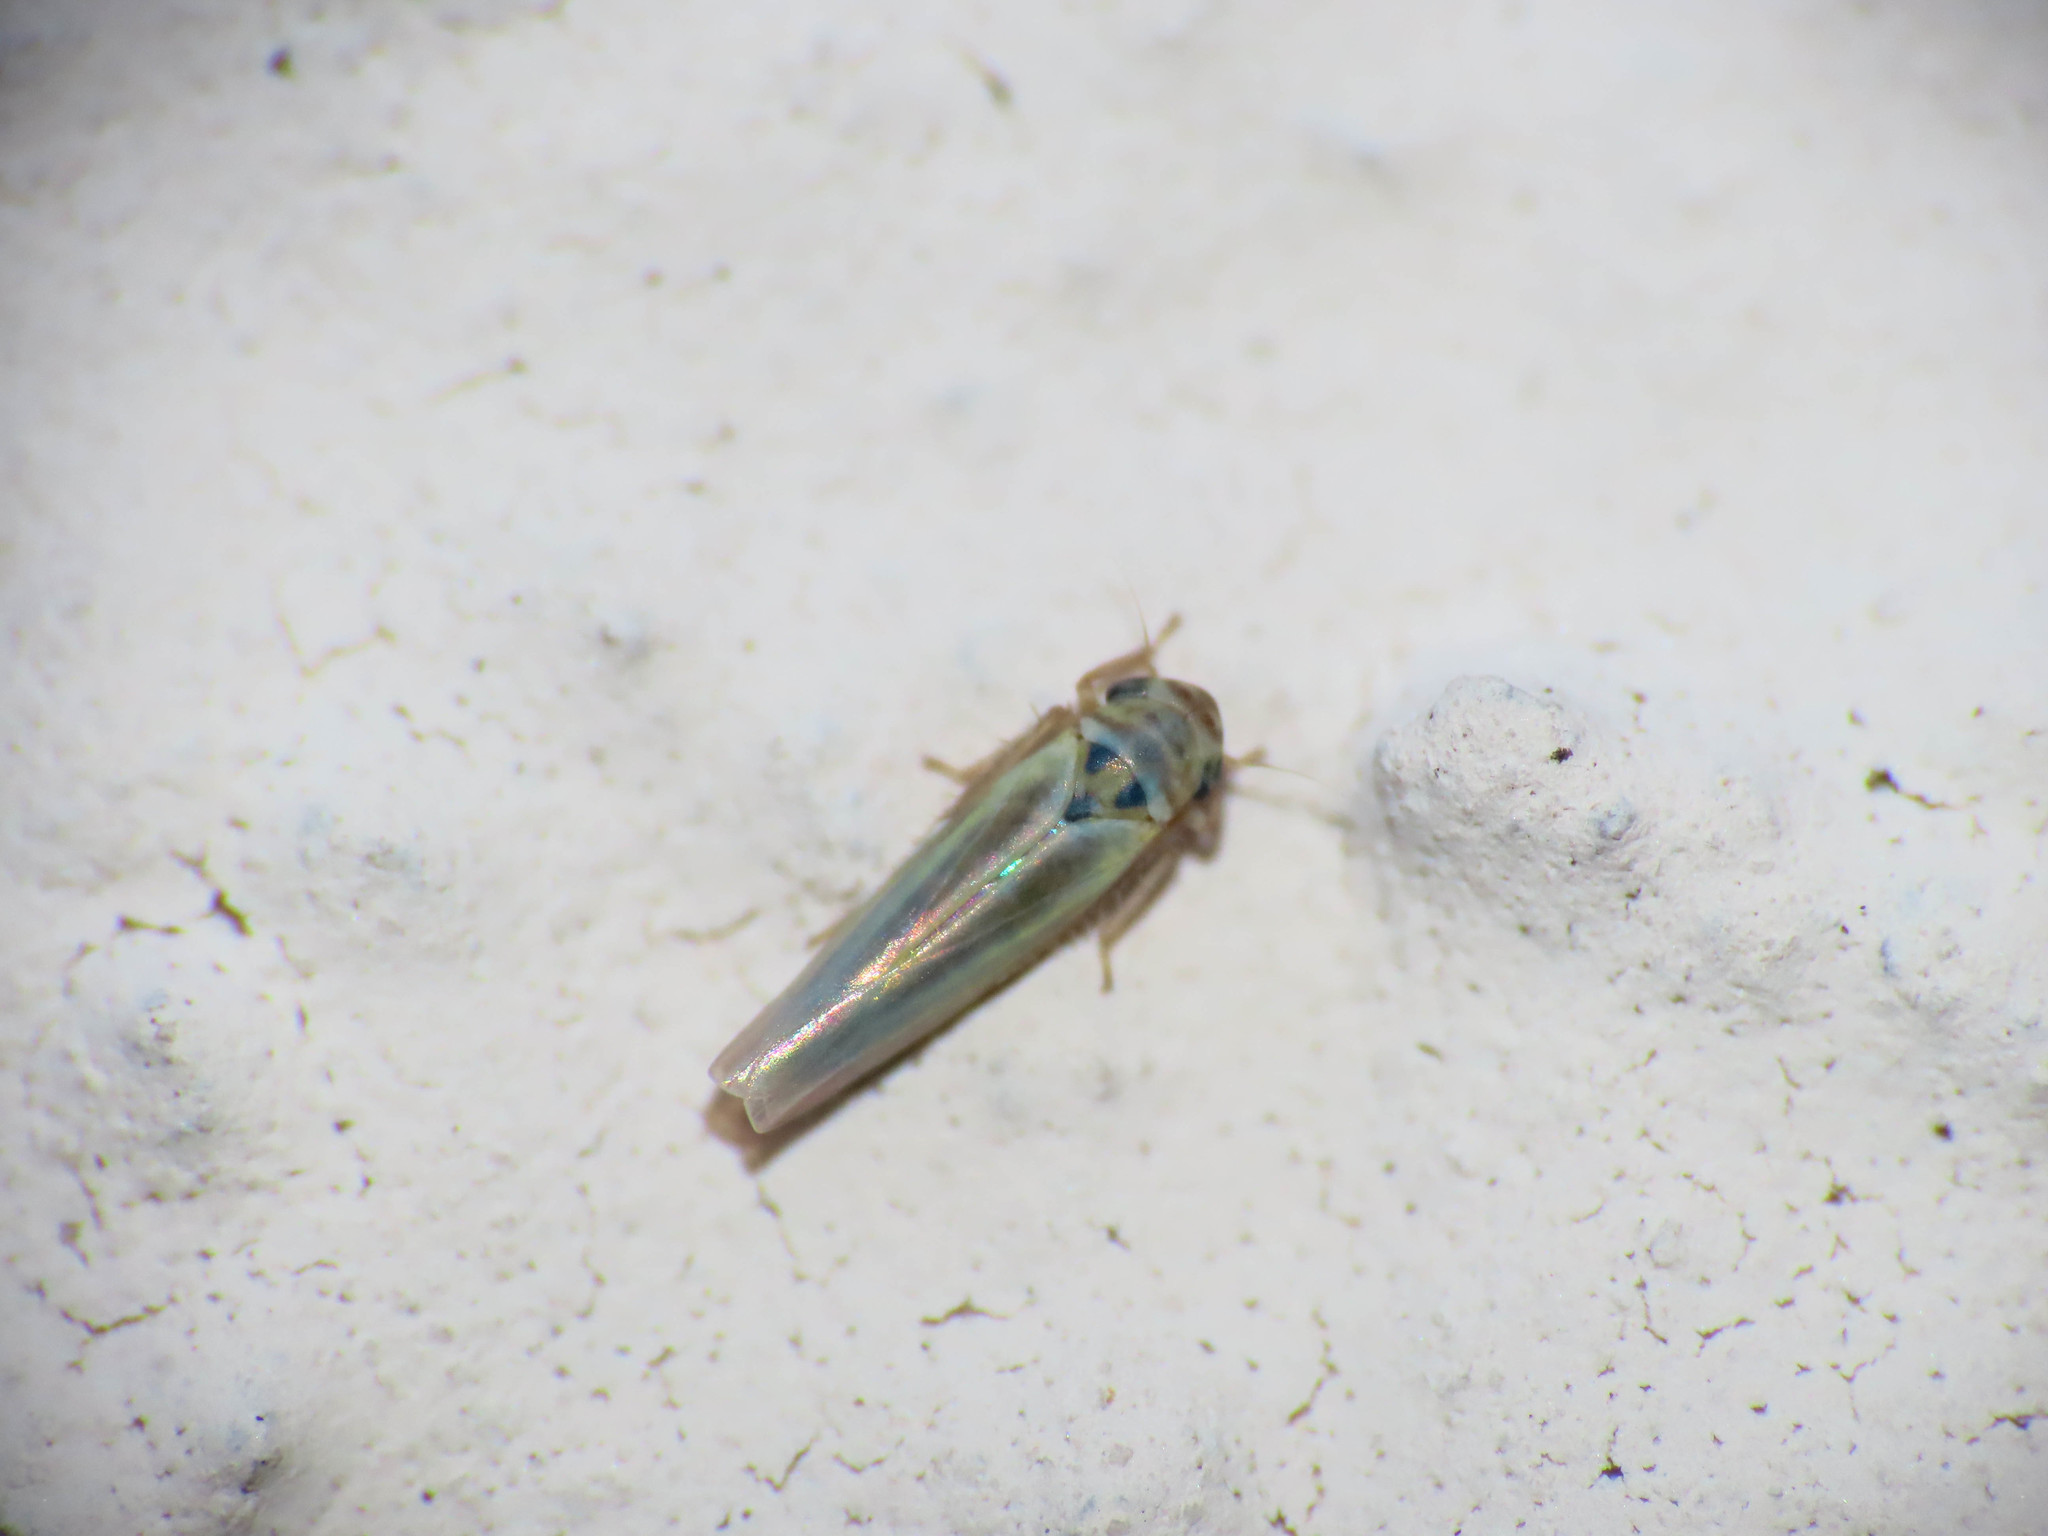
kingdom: Animalia
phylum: Arthropoda
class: Insecta
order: Hemiptera
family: Cicadellidae
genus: Zyginidia
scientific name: Zyginidia scutellaris
